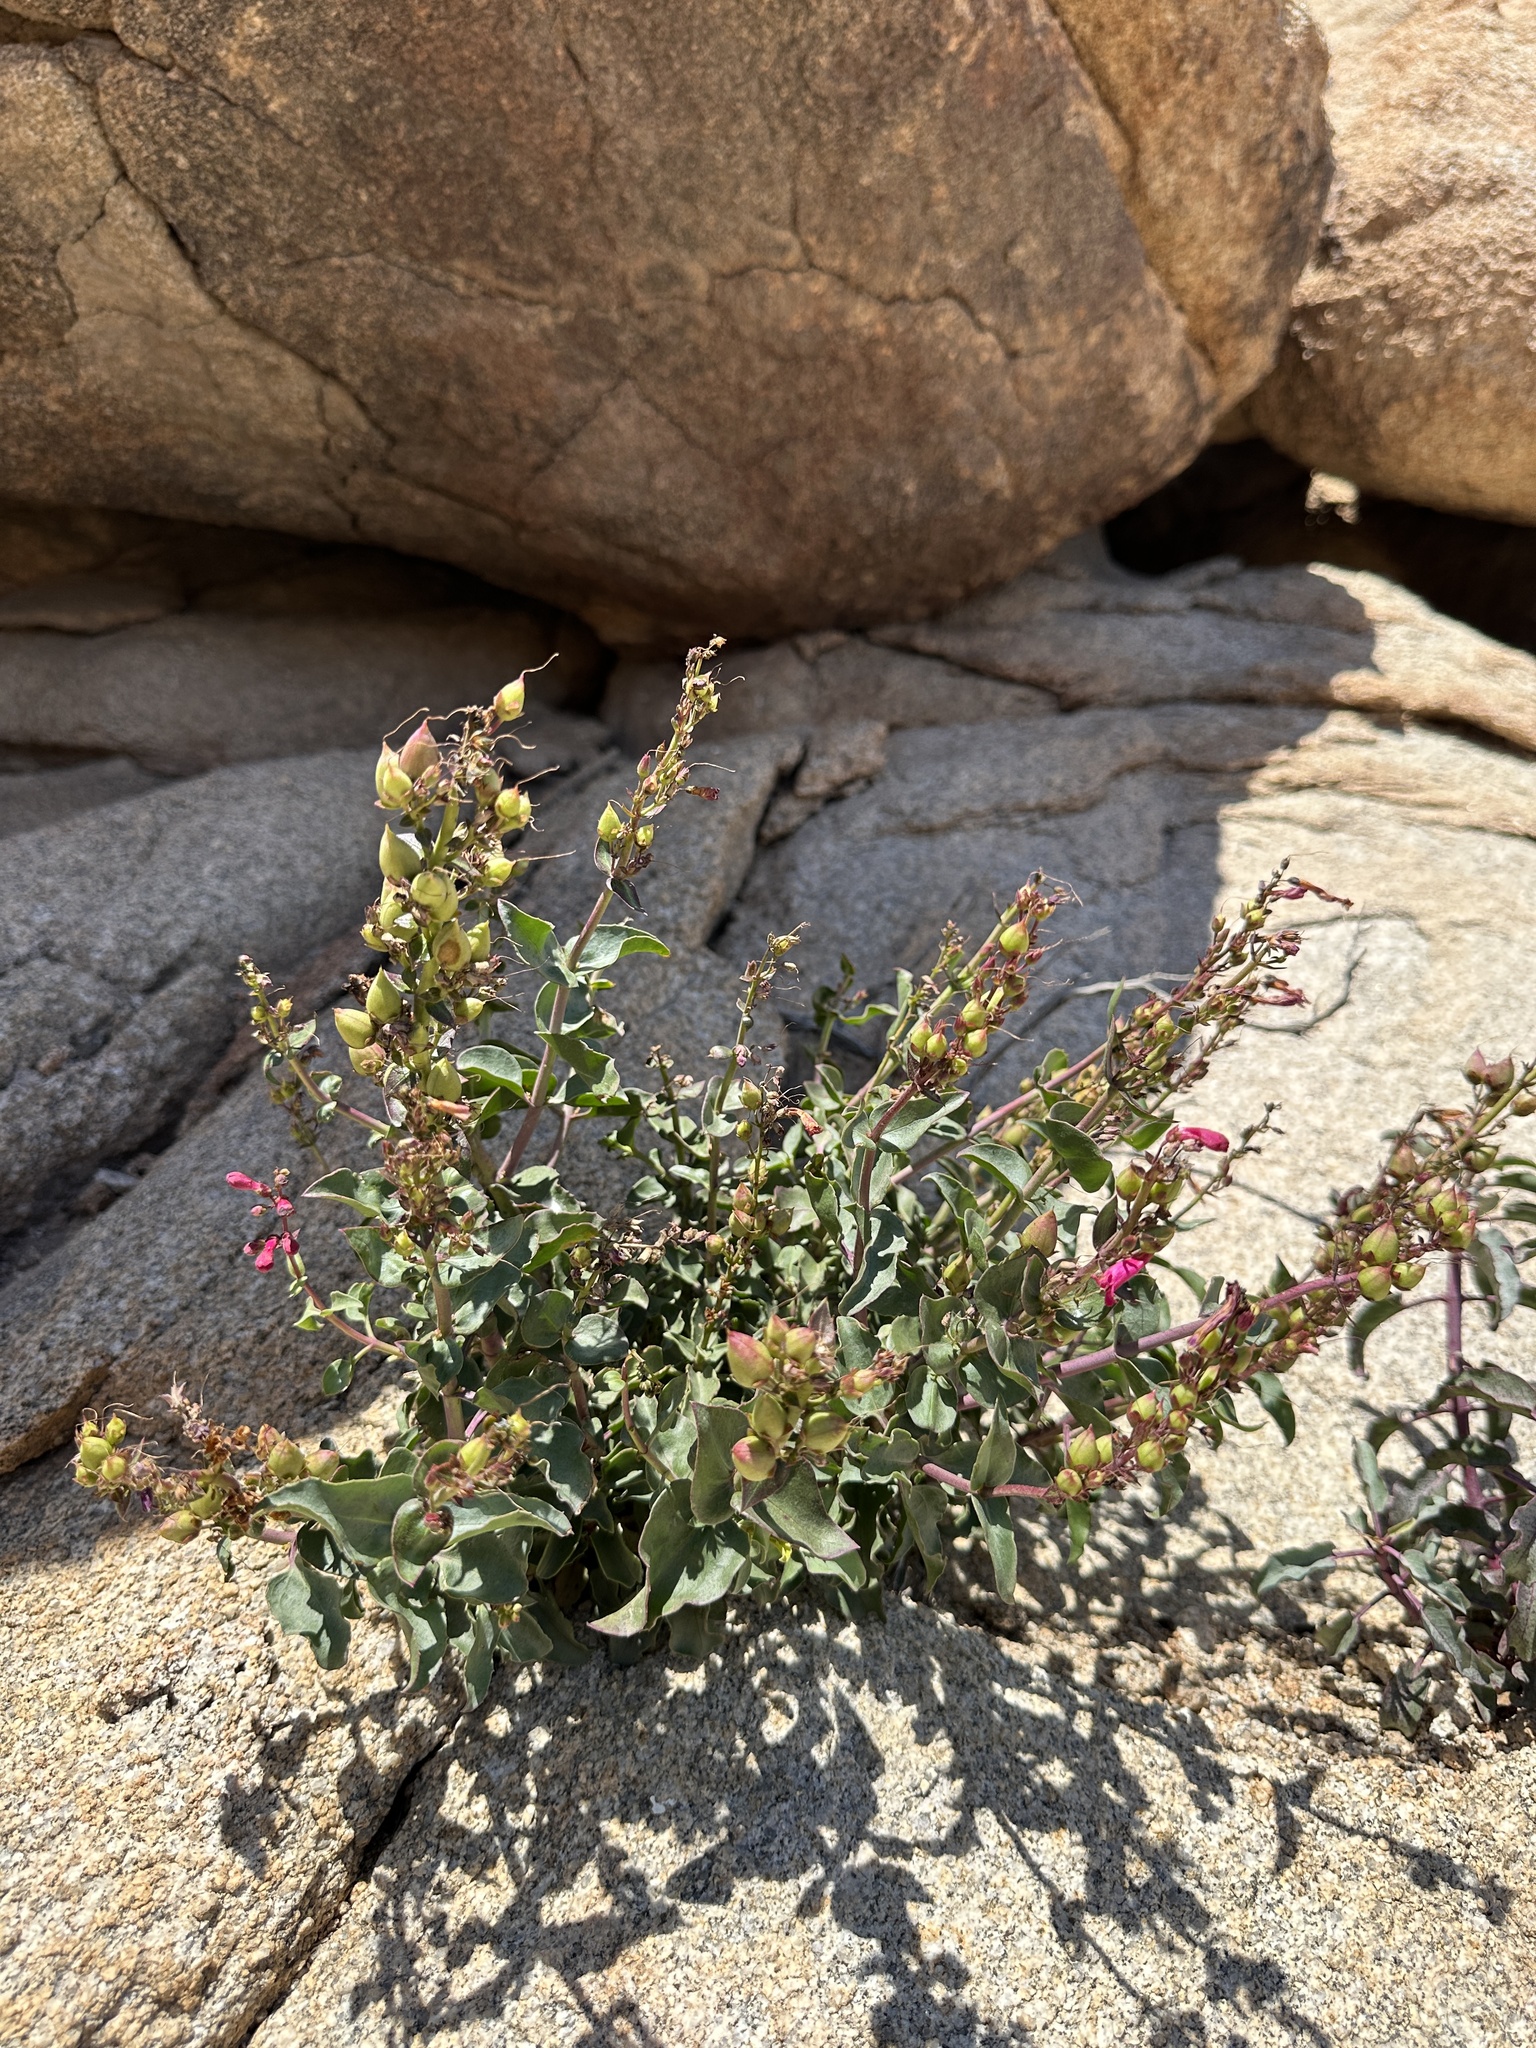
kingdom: Plantae
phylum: Tracheophyta
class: Magnoliopsida
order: Lamiales
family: Plantaginaceae
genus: Penstemon
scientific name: Penstemon clevelandii
